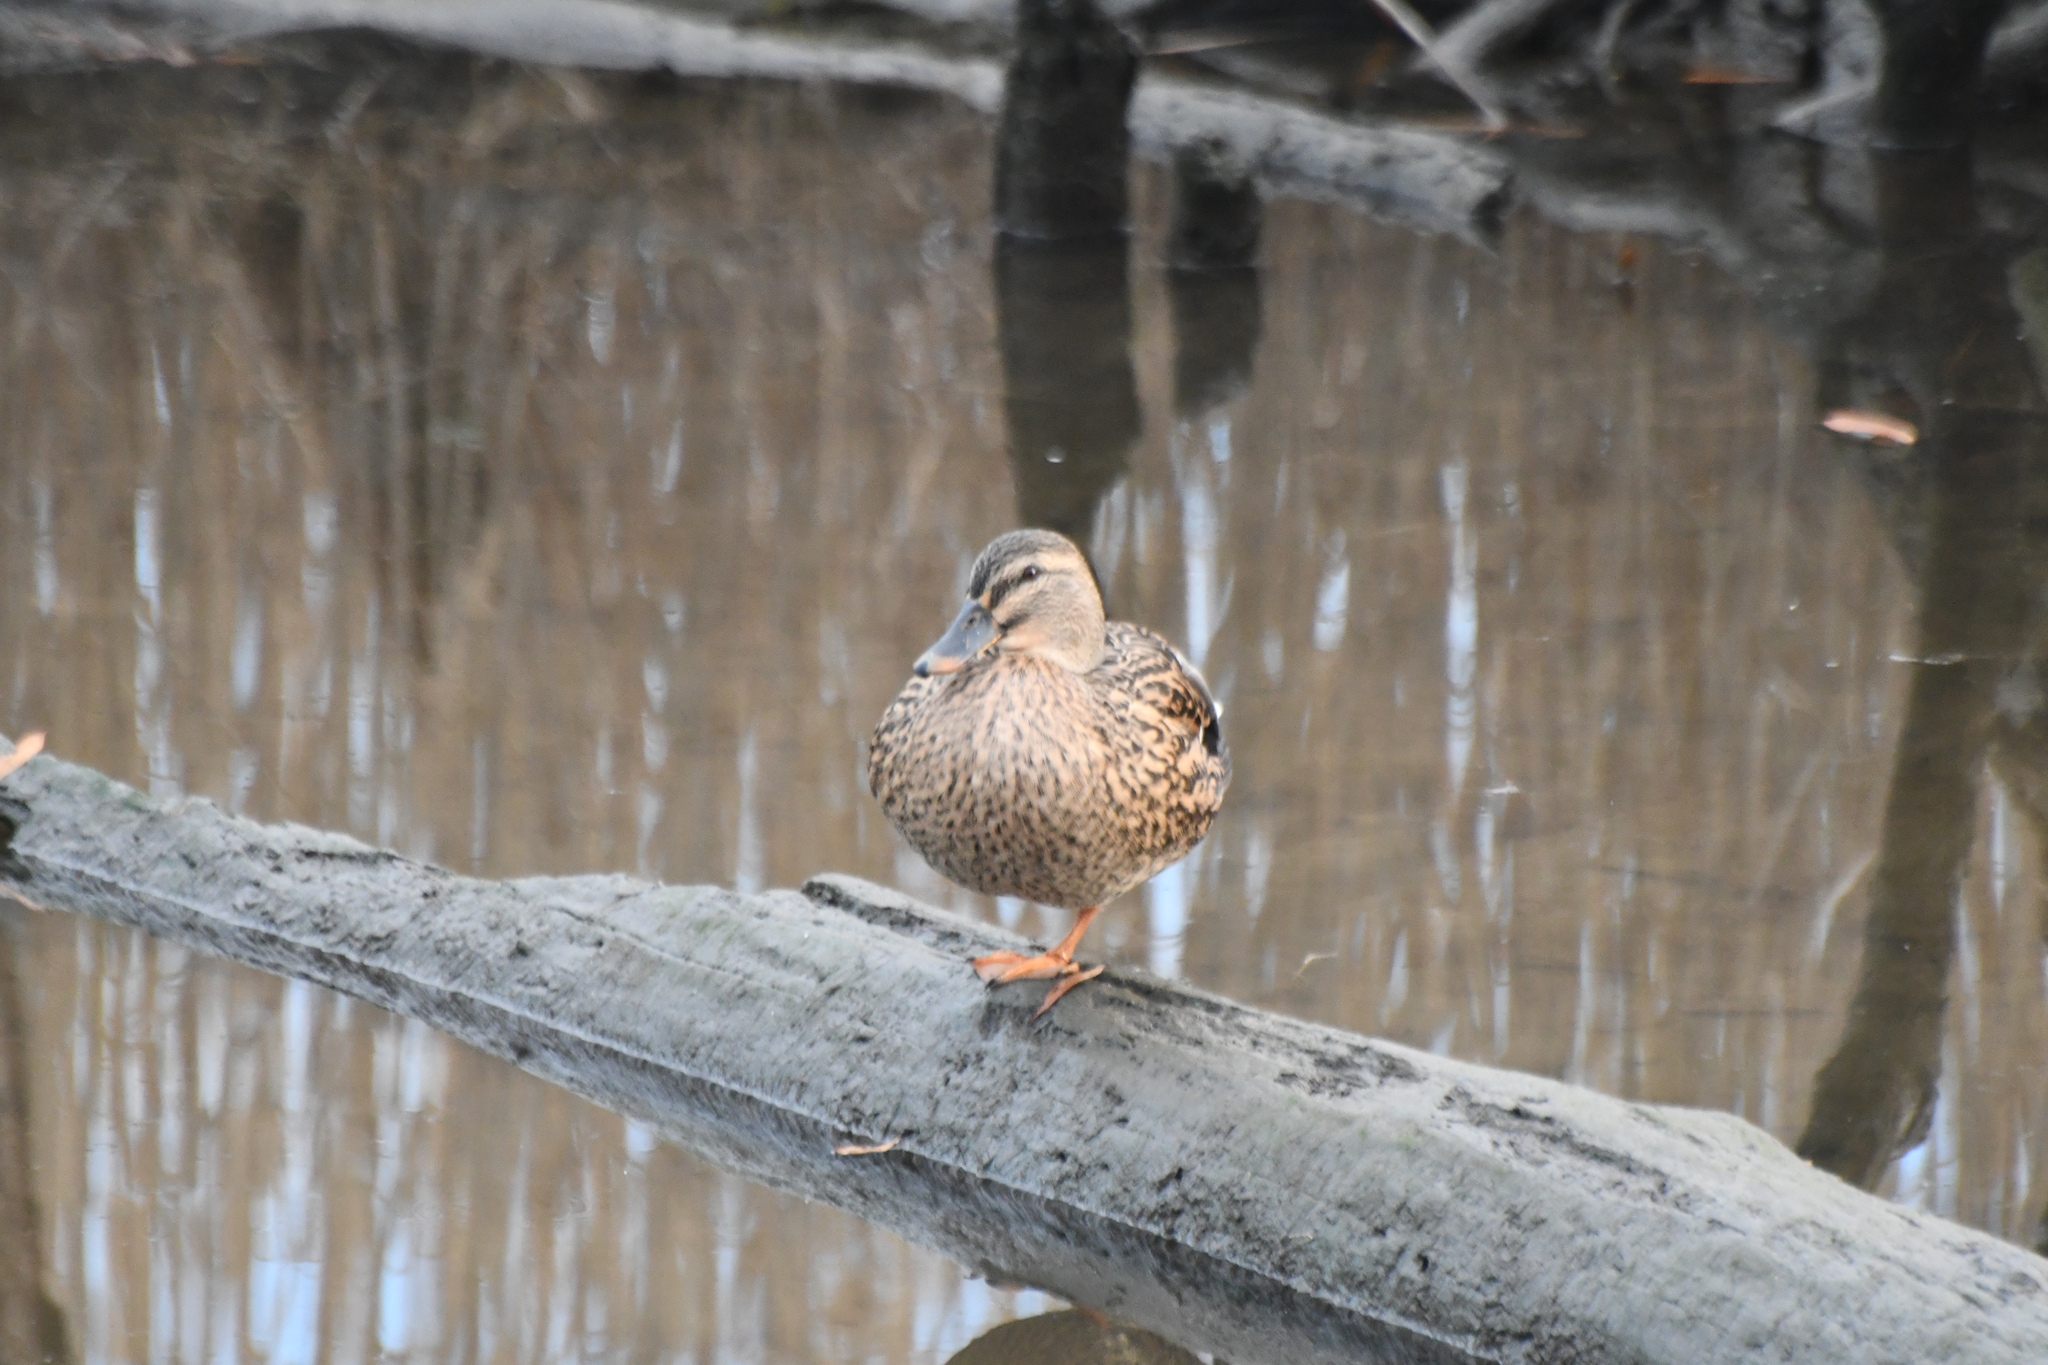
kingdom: Animalia
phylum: Chordata
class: Aves
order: Anseriformes
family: Anatidae
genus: Anas
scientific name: Anas platyrhynchos
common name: Mallard
